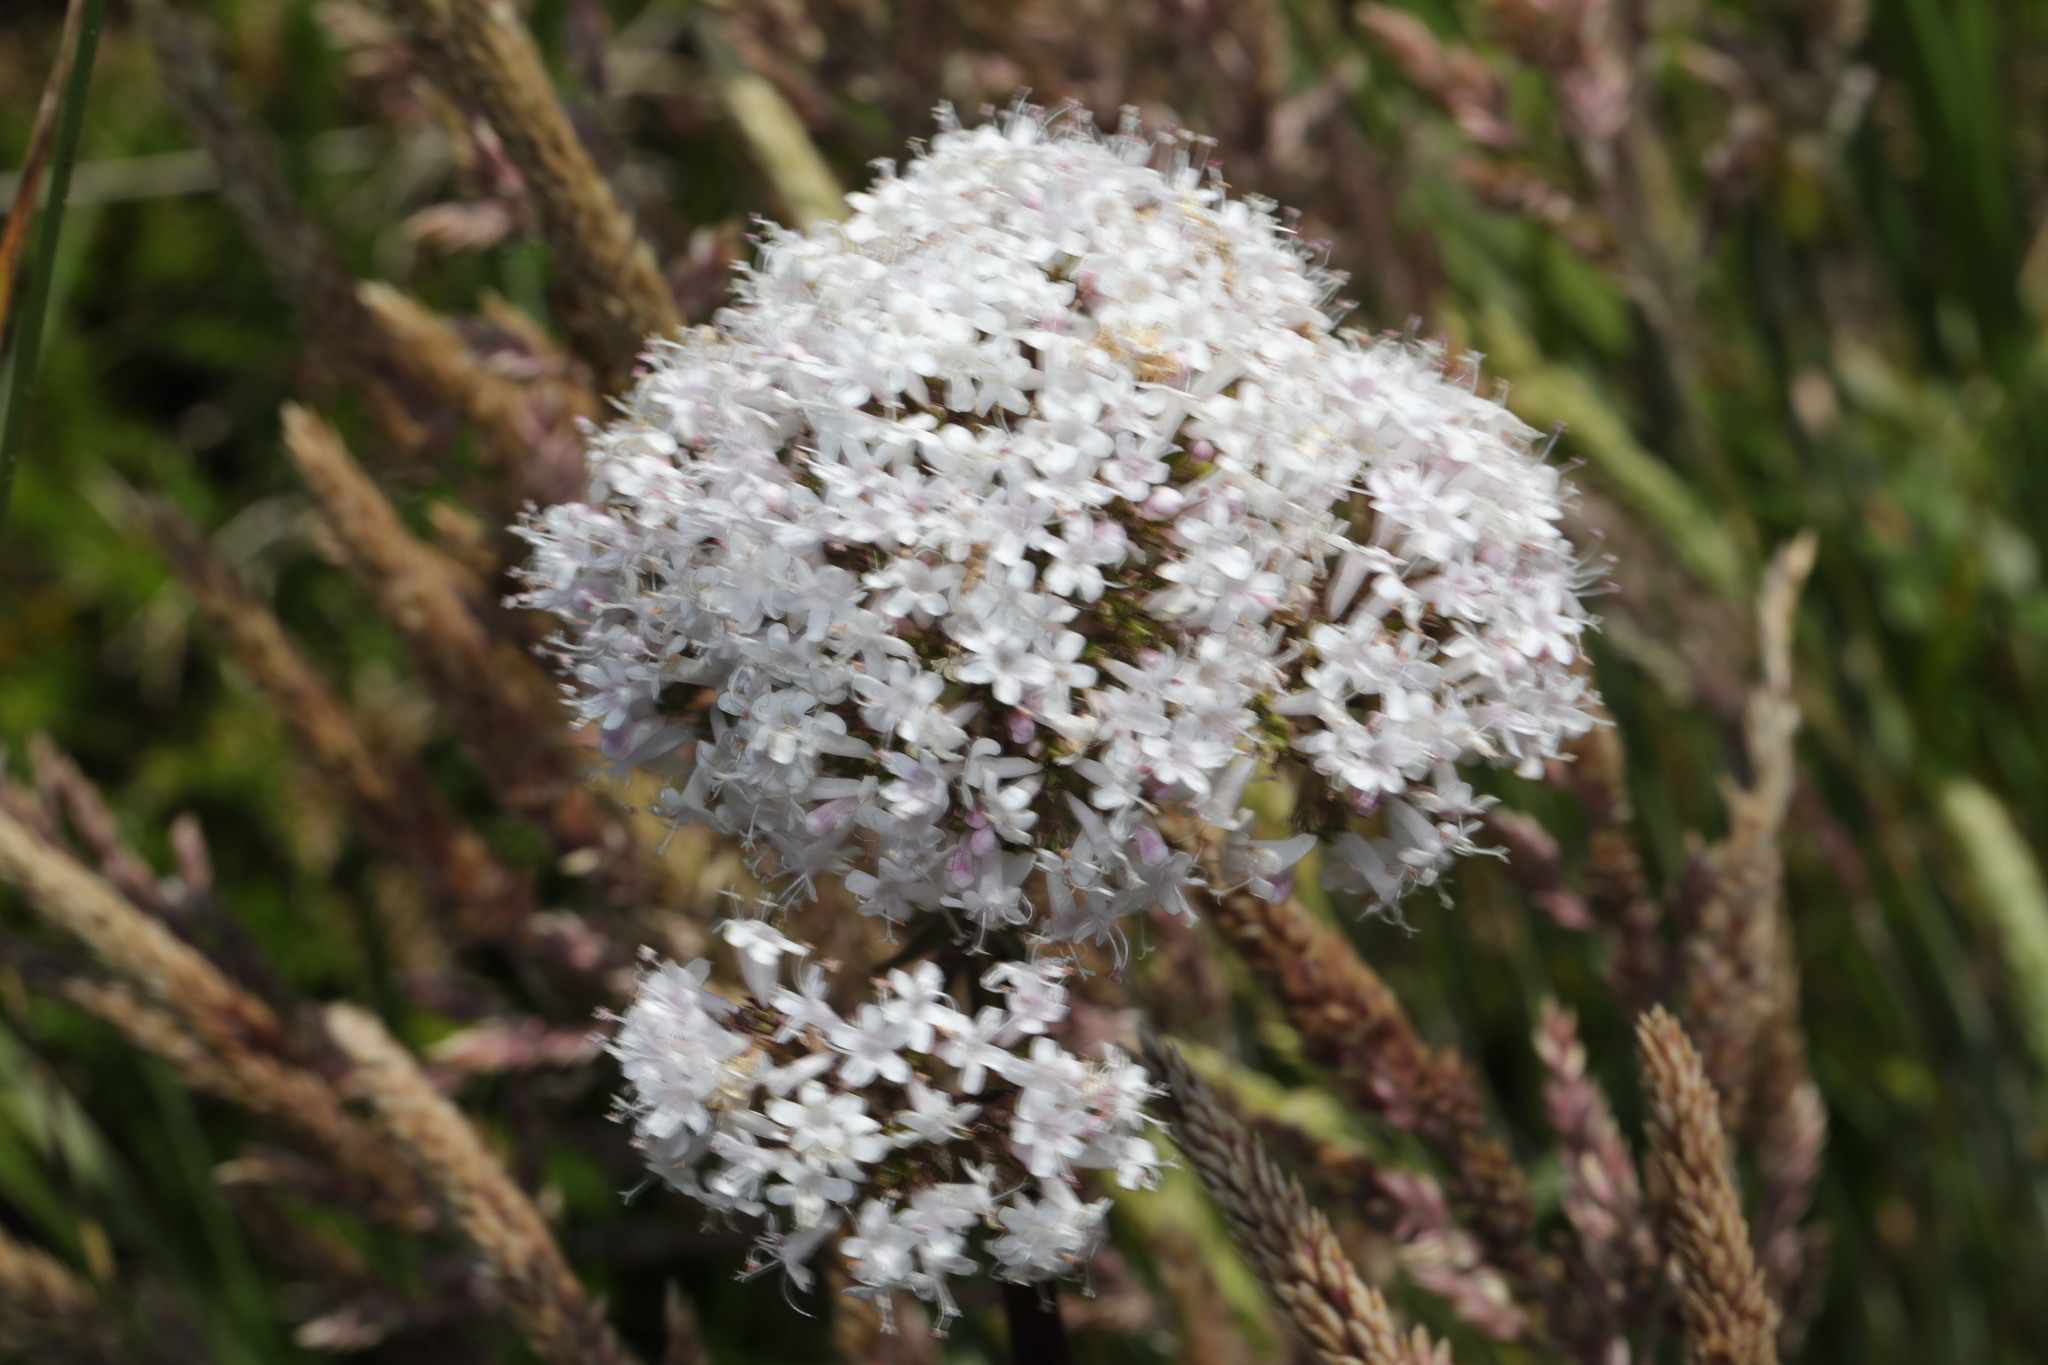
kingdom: Plantae
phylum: Tracheophyta
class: Magnoliopsida
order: Dipsacales
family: Caprifoliaceae
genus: Valeriana
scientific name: Valeriana officinalis
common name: Common valerian
